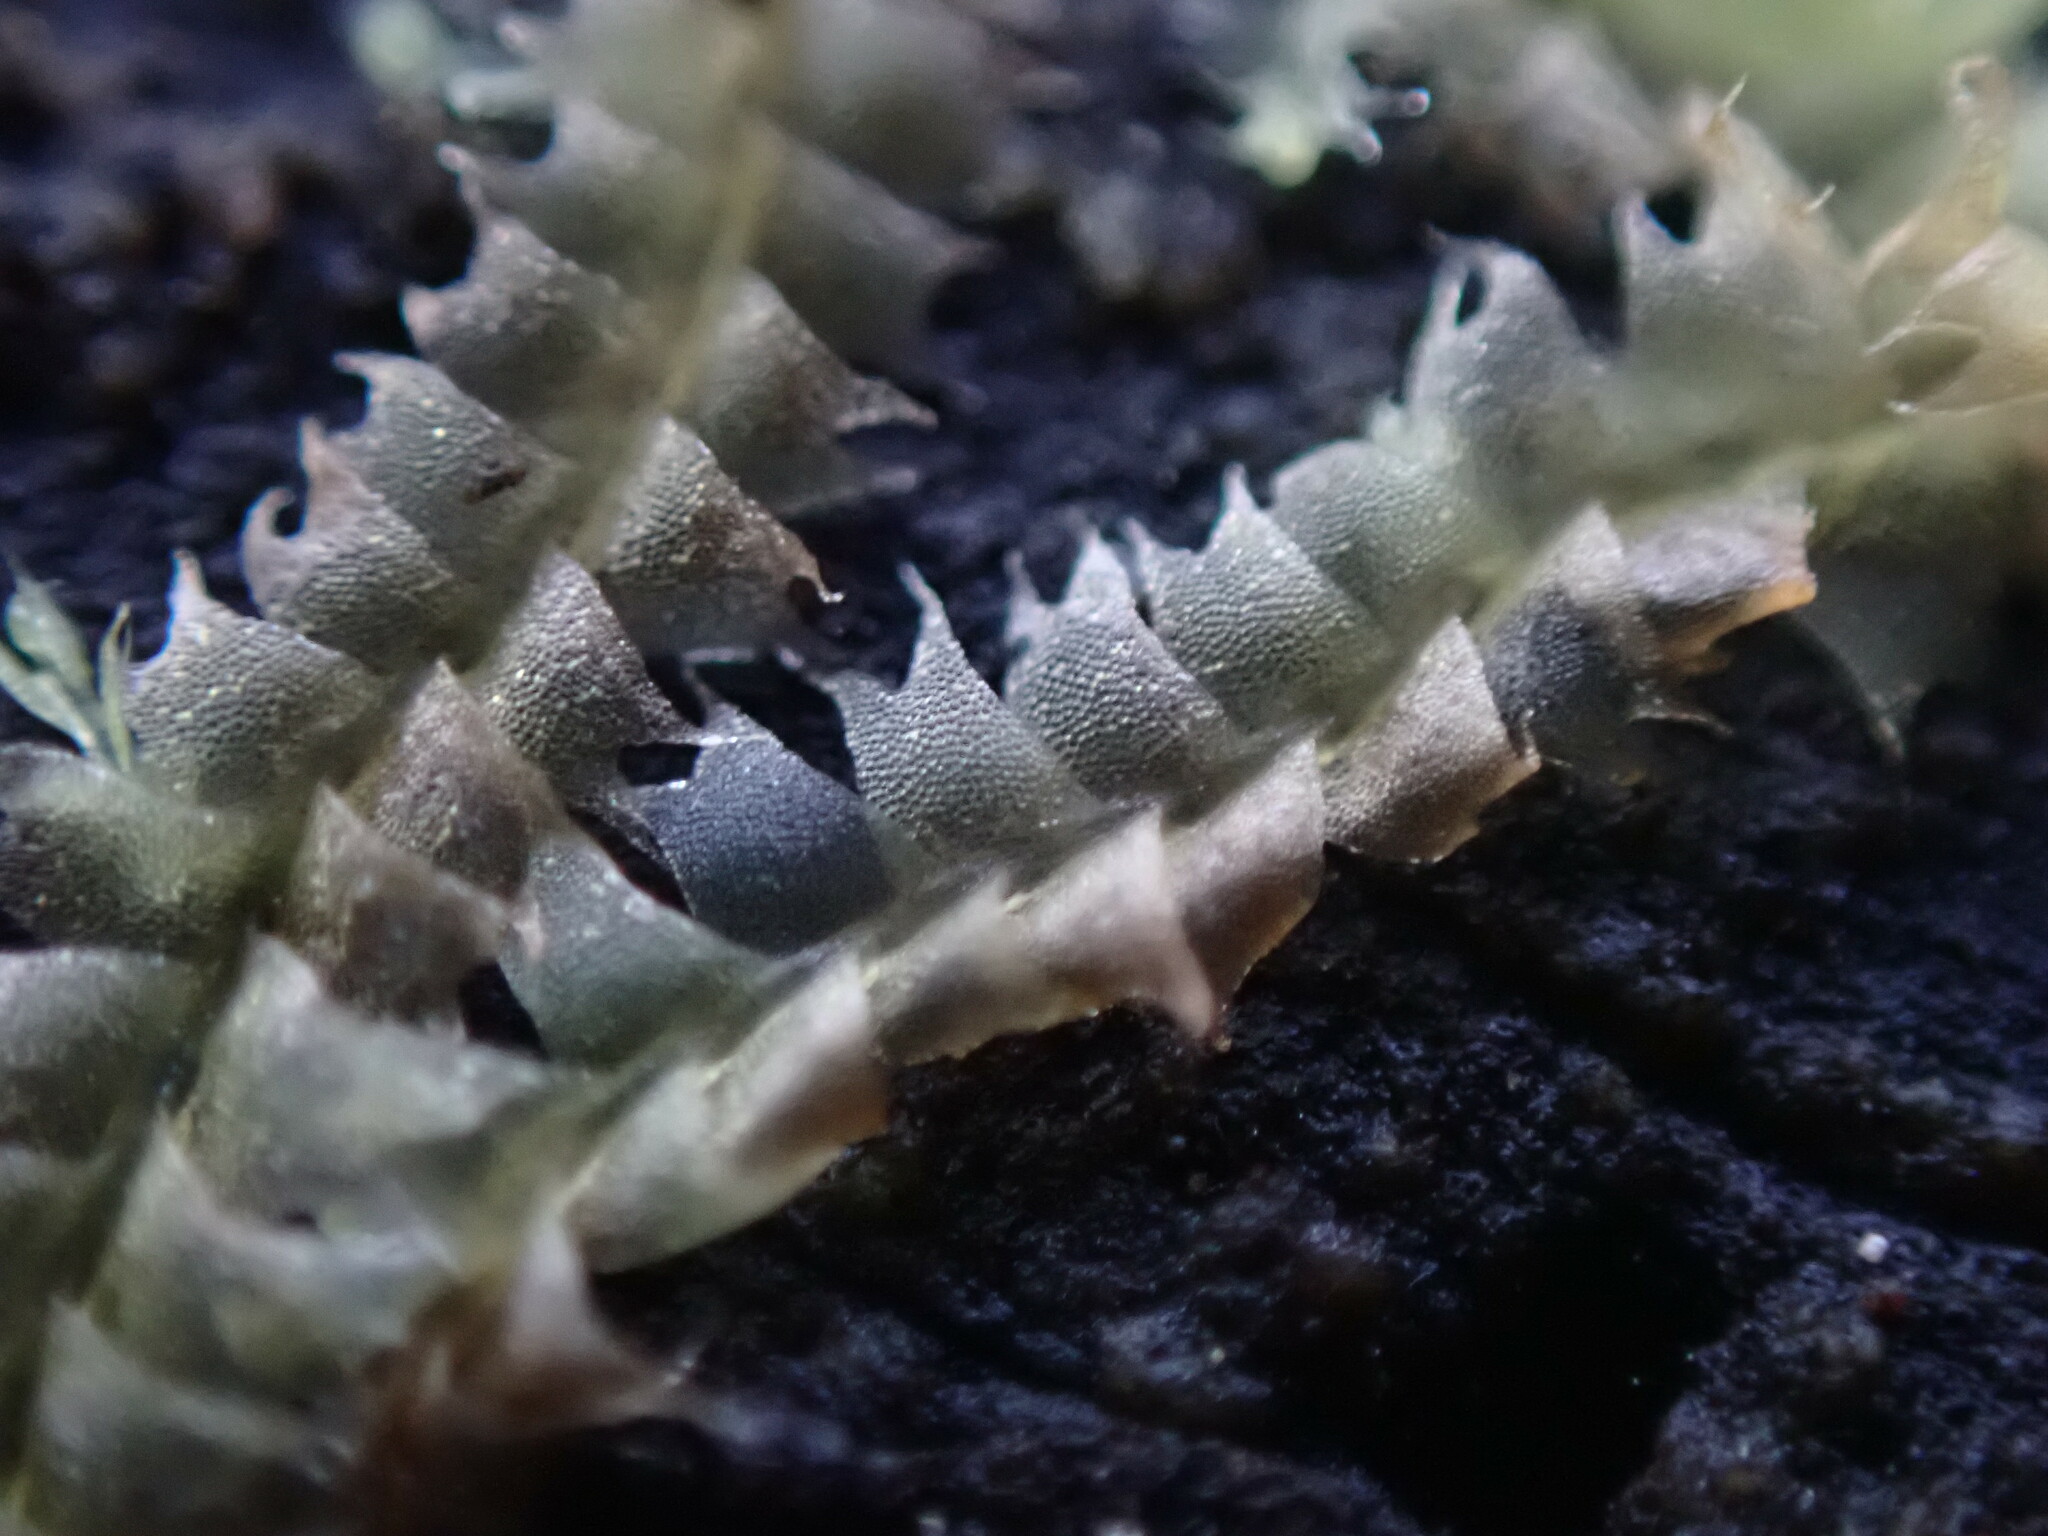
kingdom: Plantae
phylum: Marchantiophyta
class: Jungermanniopsida
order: Jungermanniales
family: Lophocoleaceae
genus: Lophocolea
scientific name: Lophocolea bidentata
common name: Bifid crestwort
